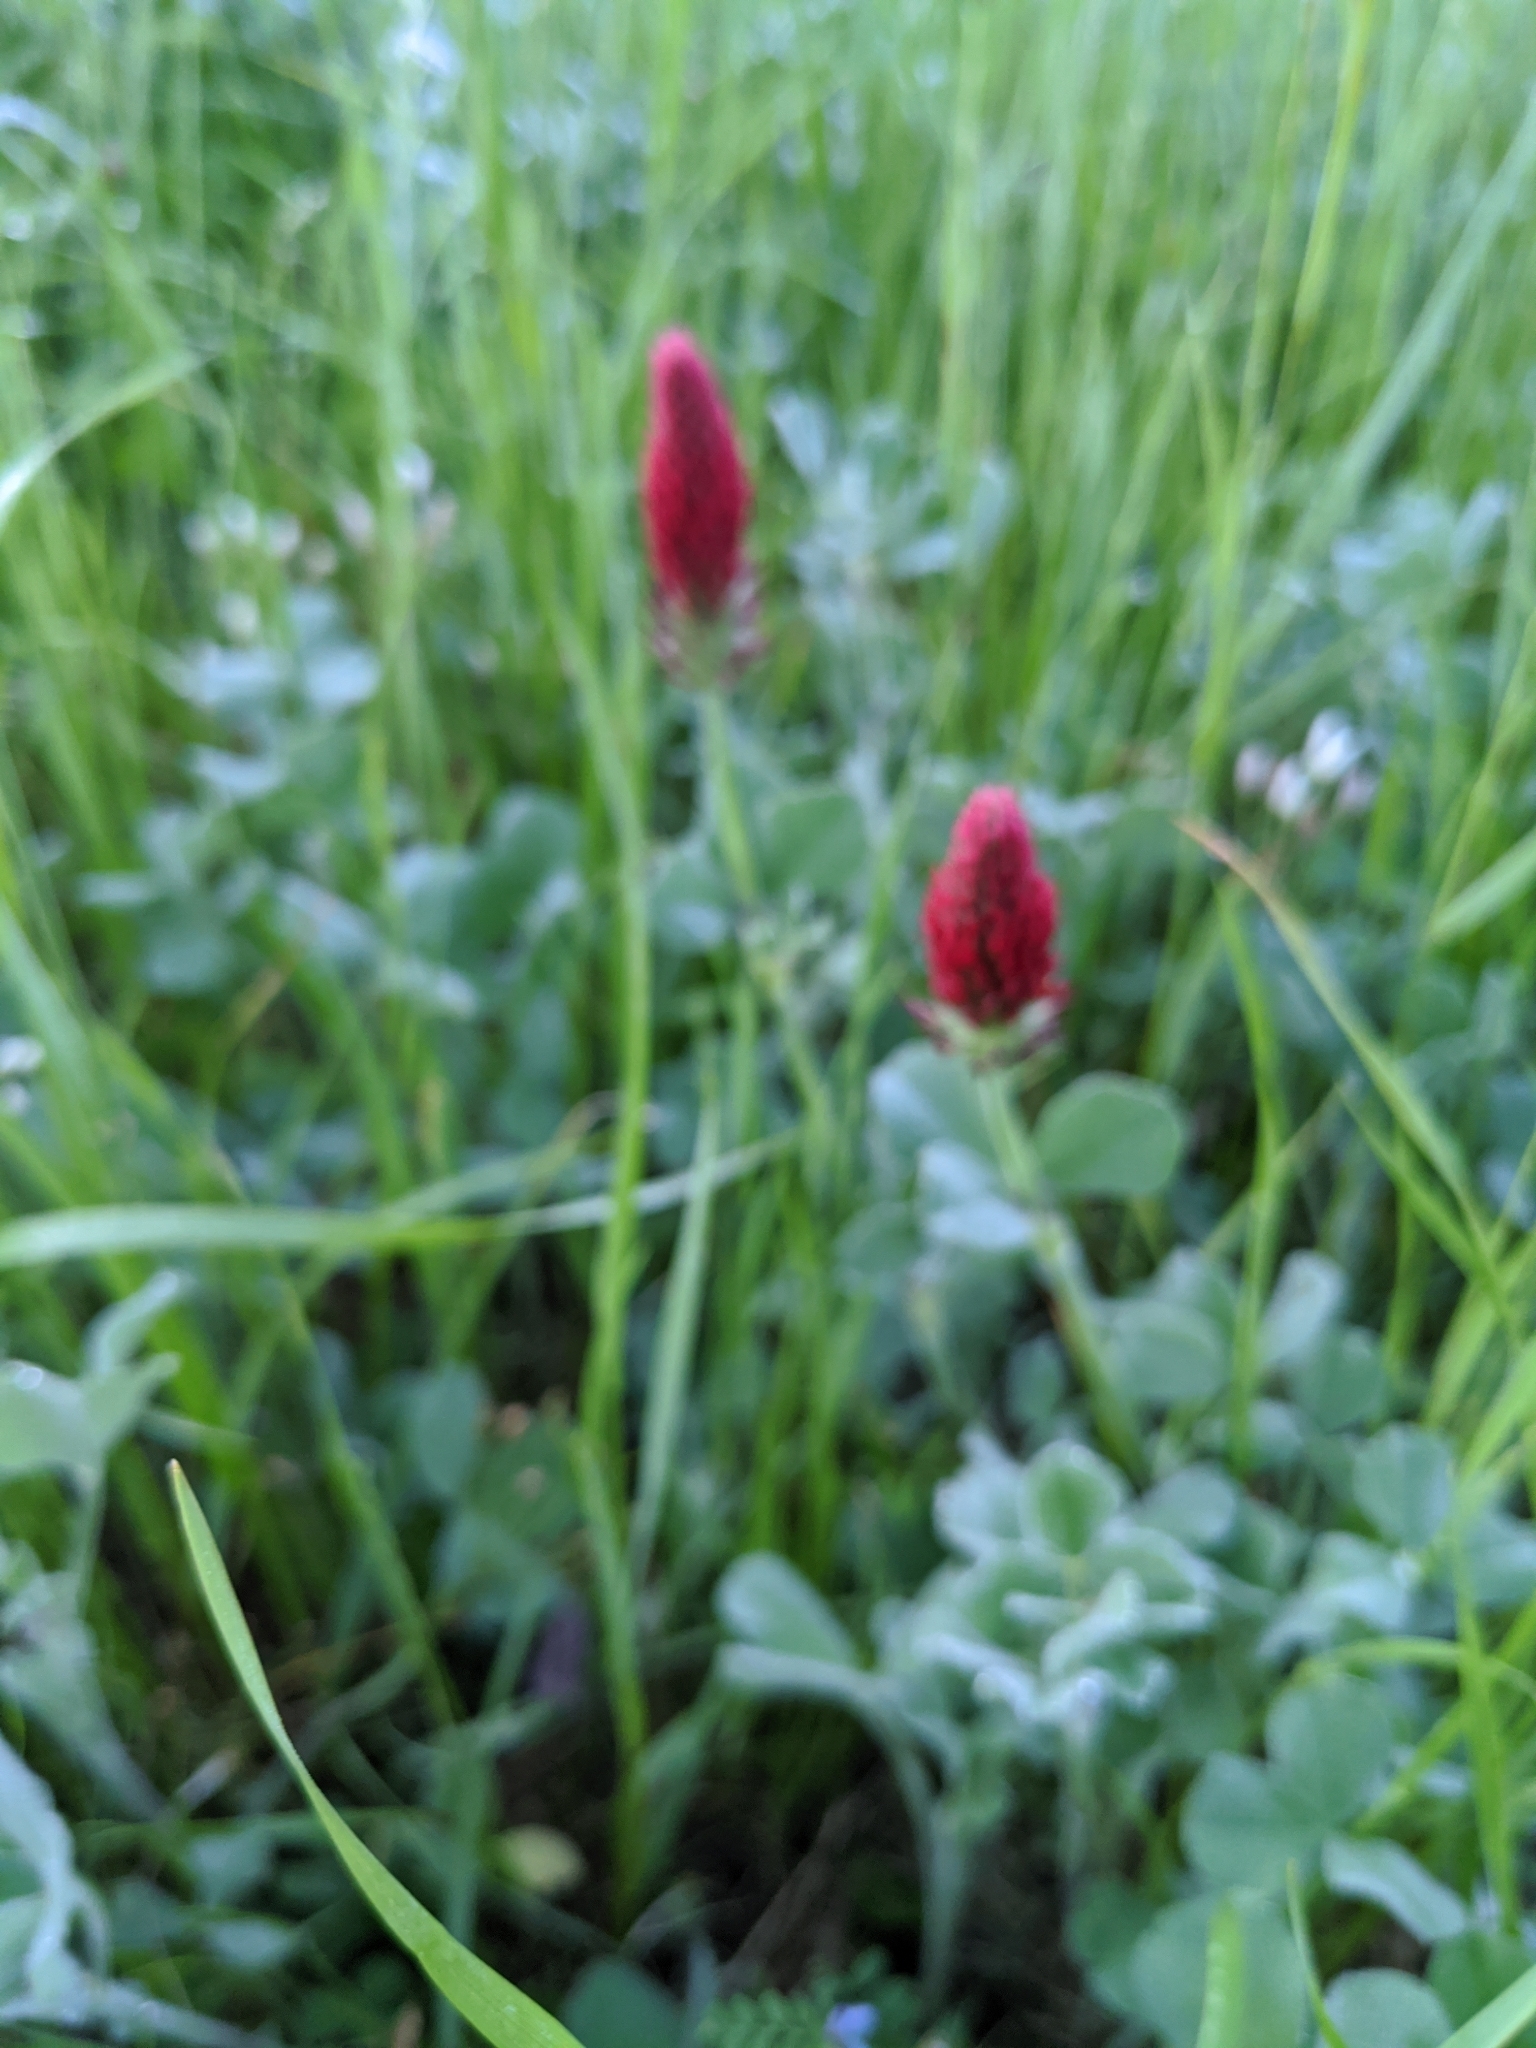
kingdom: Plantae
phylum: Tracheophyta
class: Magnoliopsida
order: Fabales
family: Fabaceae
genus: Trifolium
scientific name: Trifolium incarnatum
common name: Crimson clover
